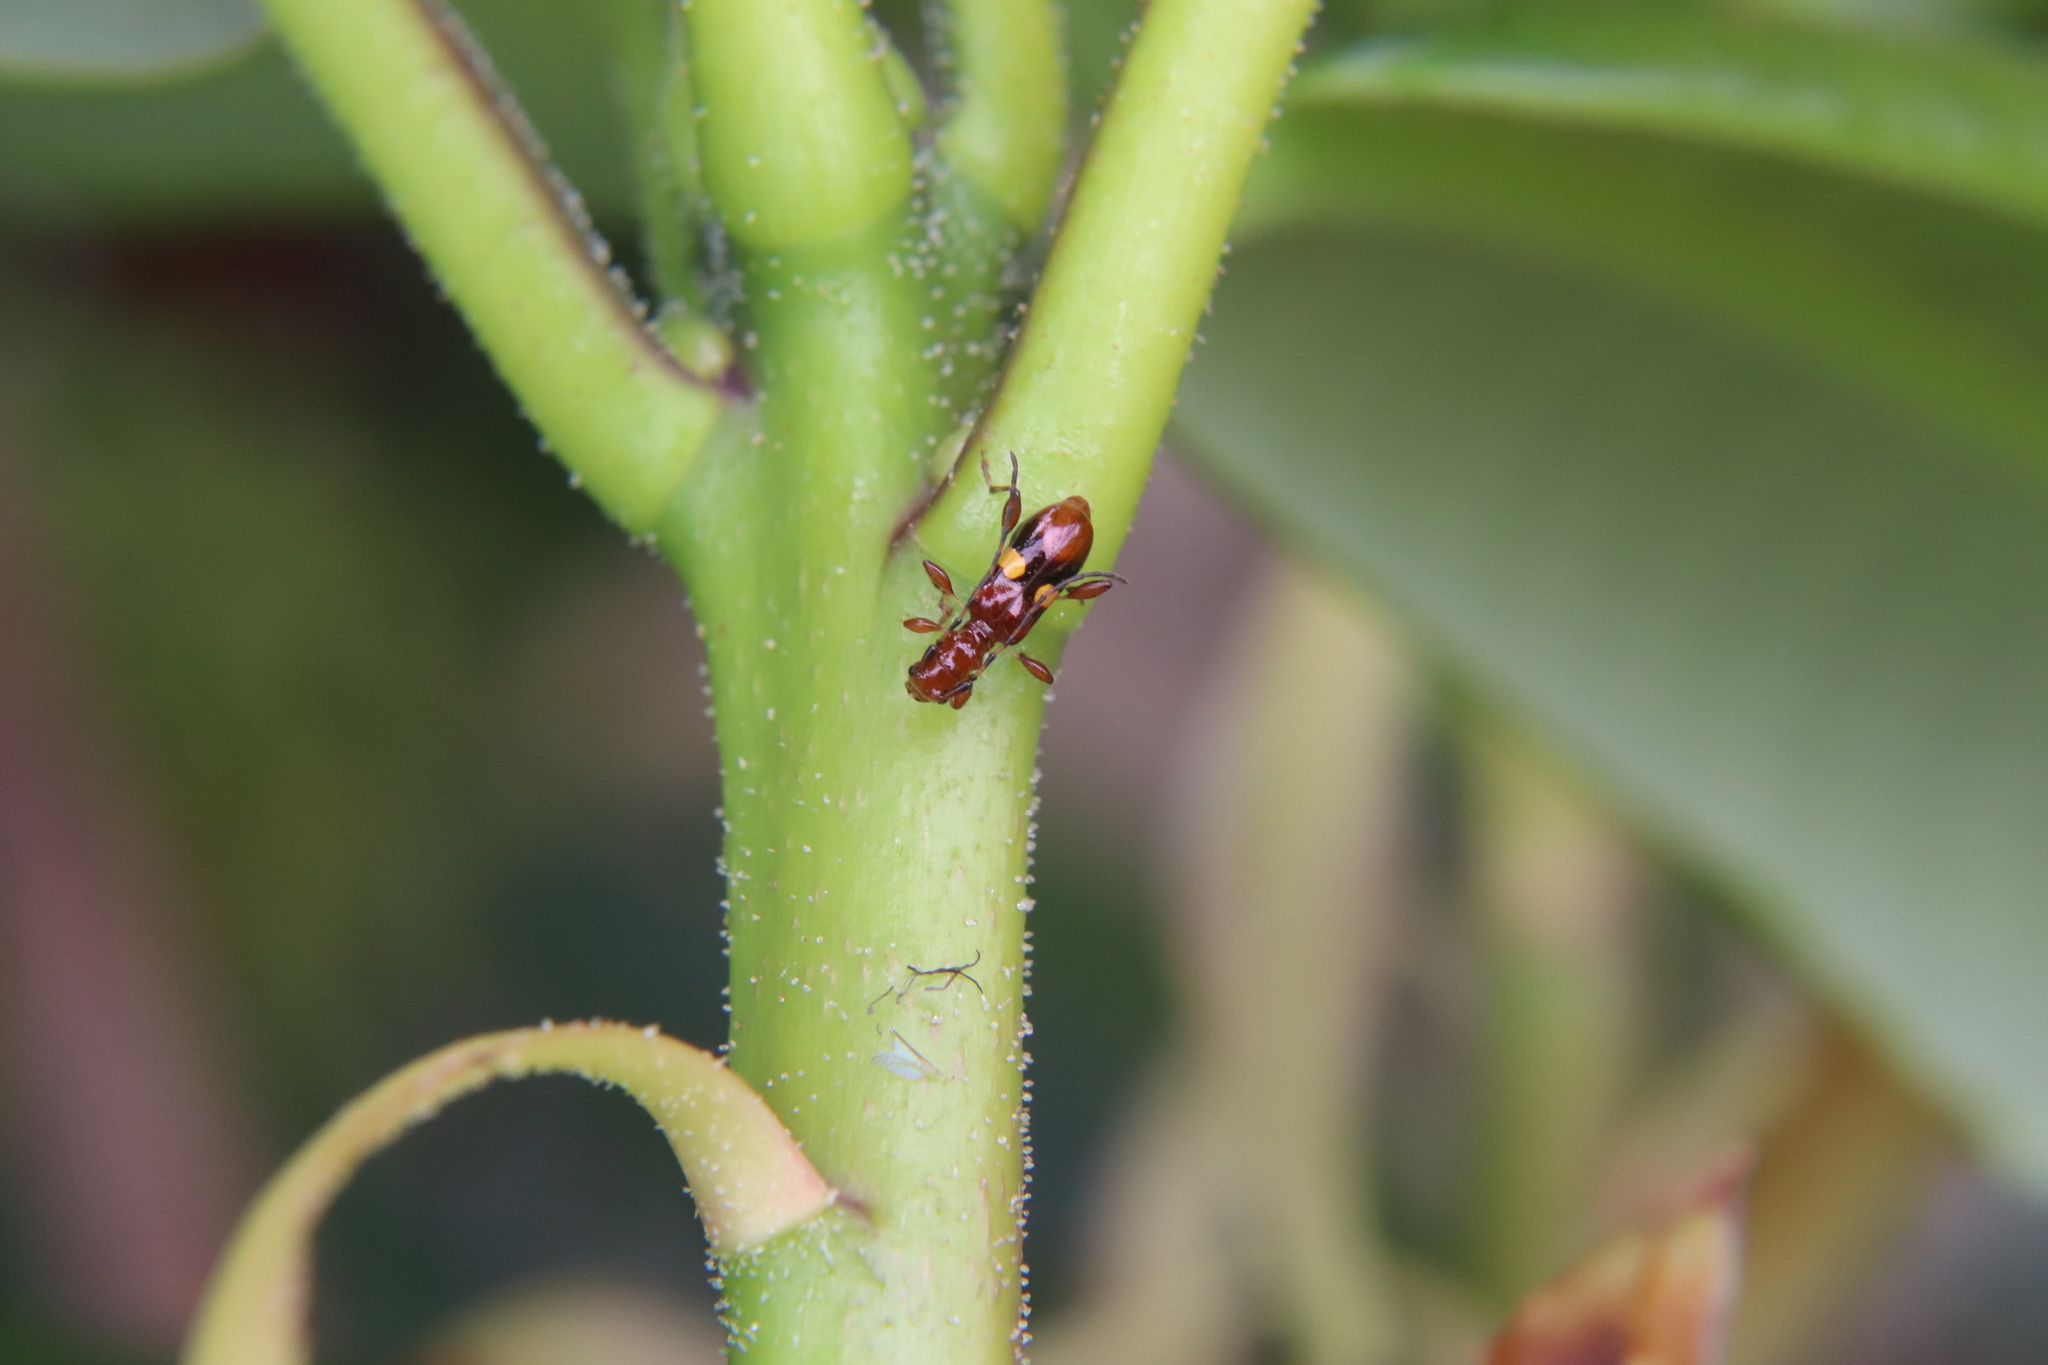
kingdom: Animalia
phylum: Arthropoda
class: Insecta
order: Coleoptera
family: Cerambycidae
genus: Zorion
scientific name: Zorion australe
